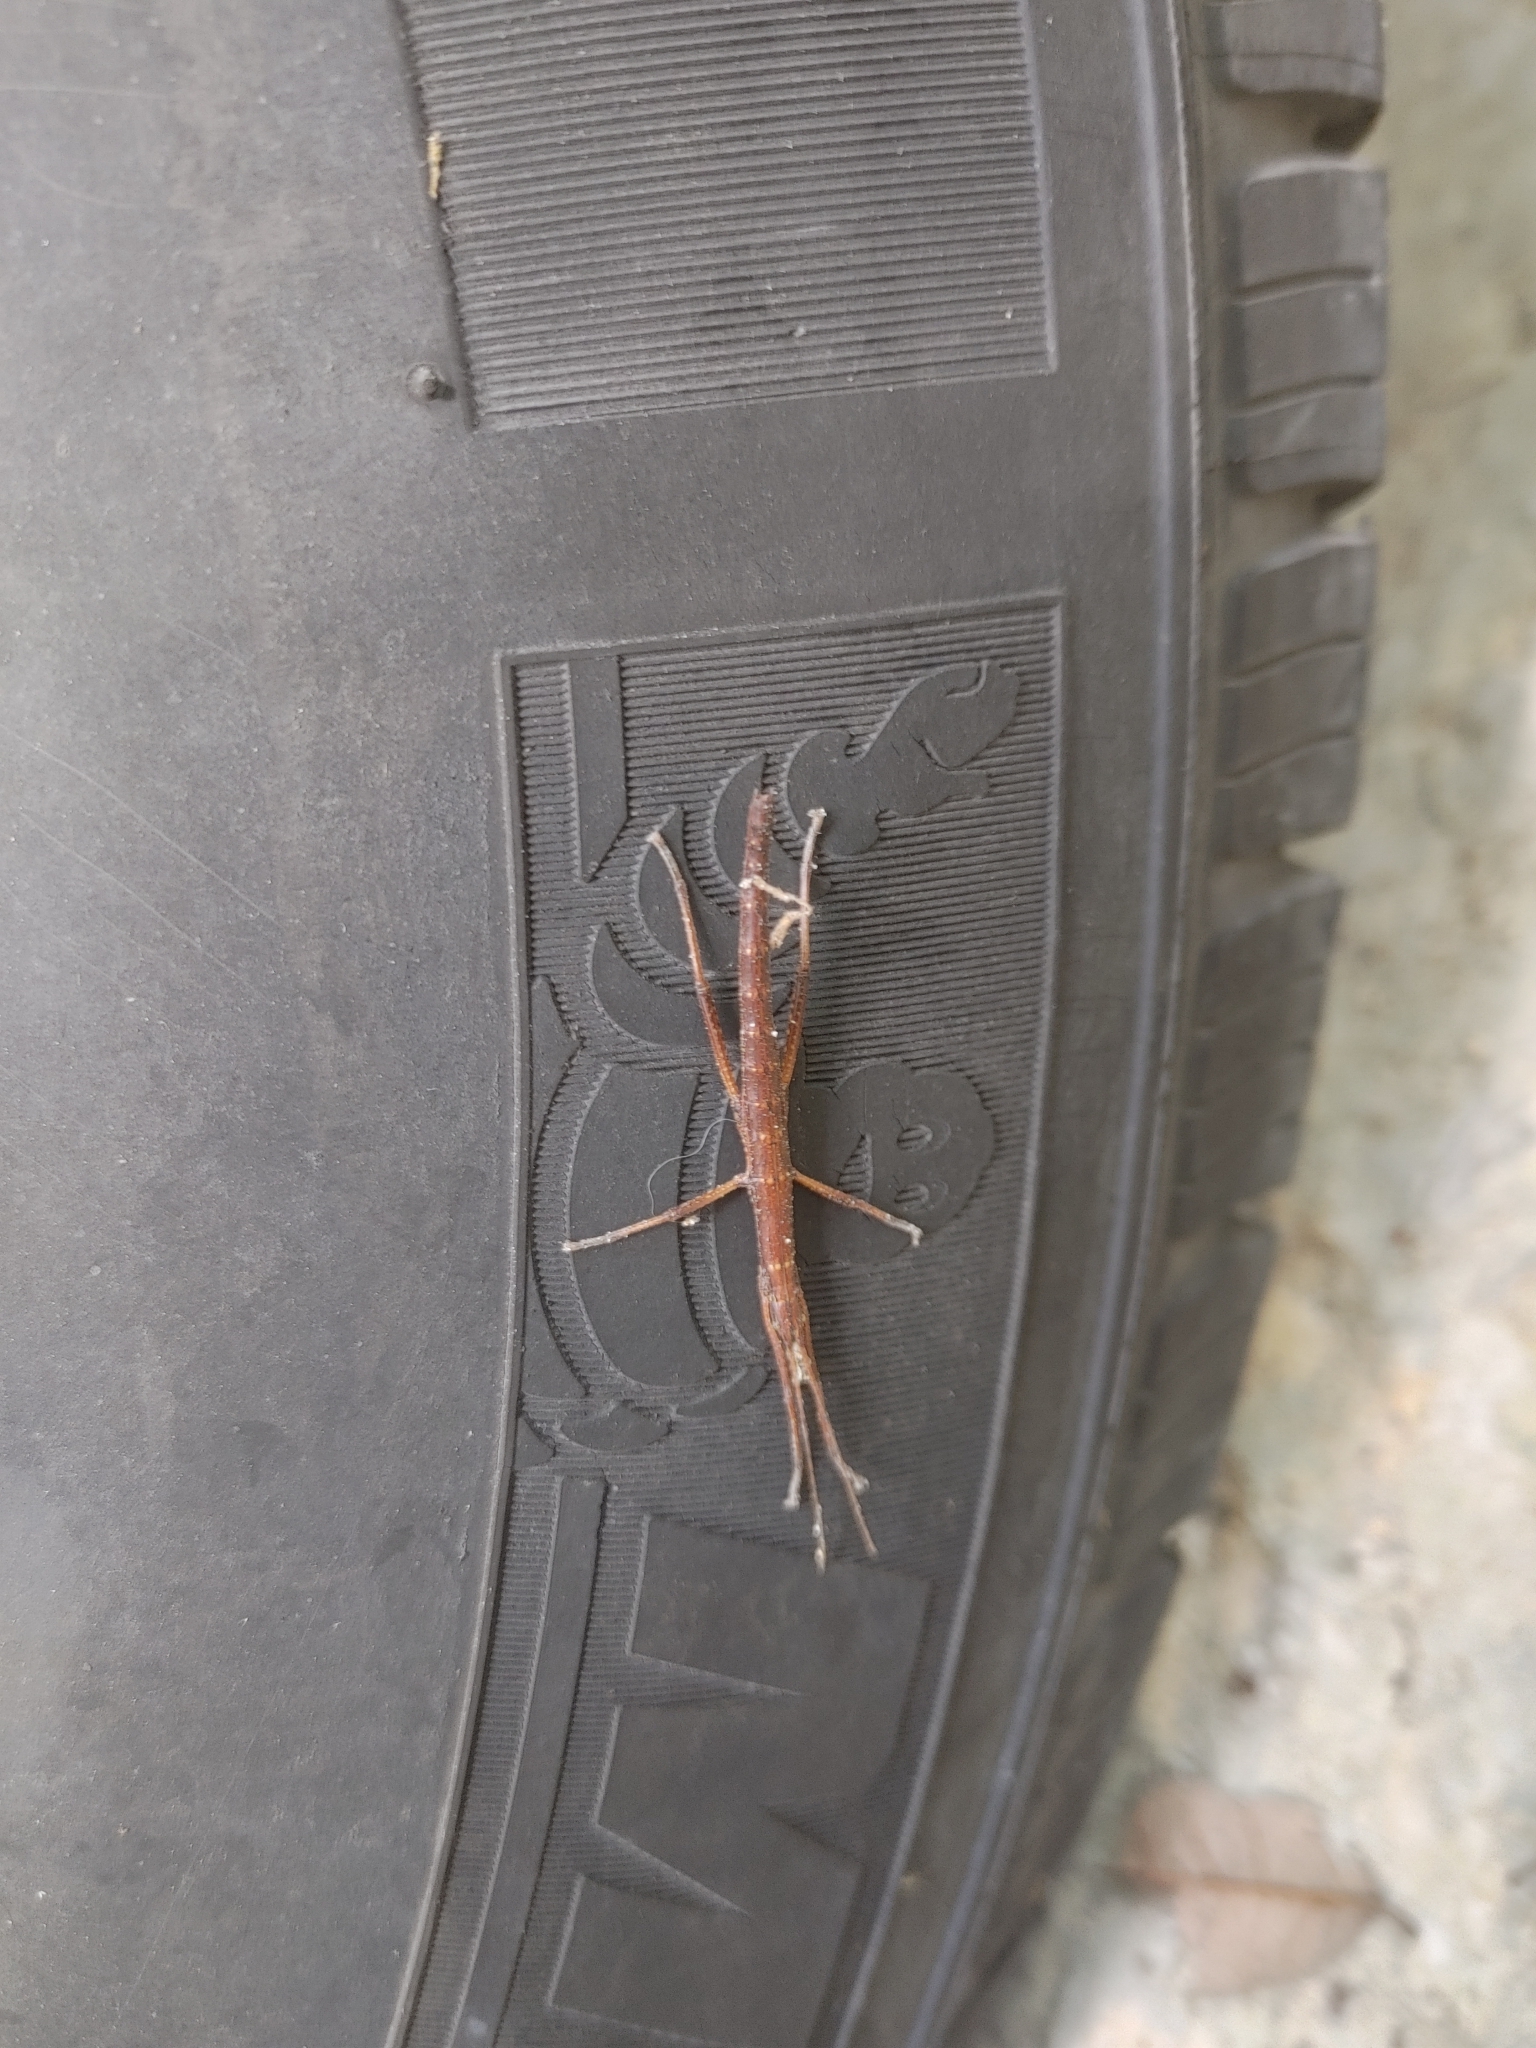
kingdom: Animalia
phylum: Arthropoda
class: Insecta
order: Phasmida
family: Pseudophasmatidae
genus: Anisomorpha
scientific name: Anisomorpha buprestoides
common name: Florida stick insect
